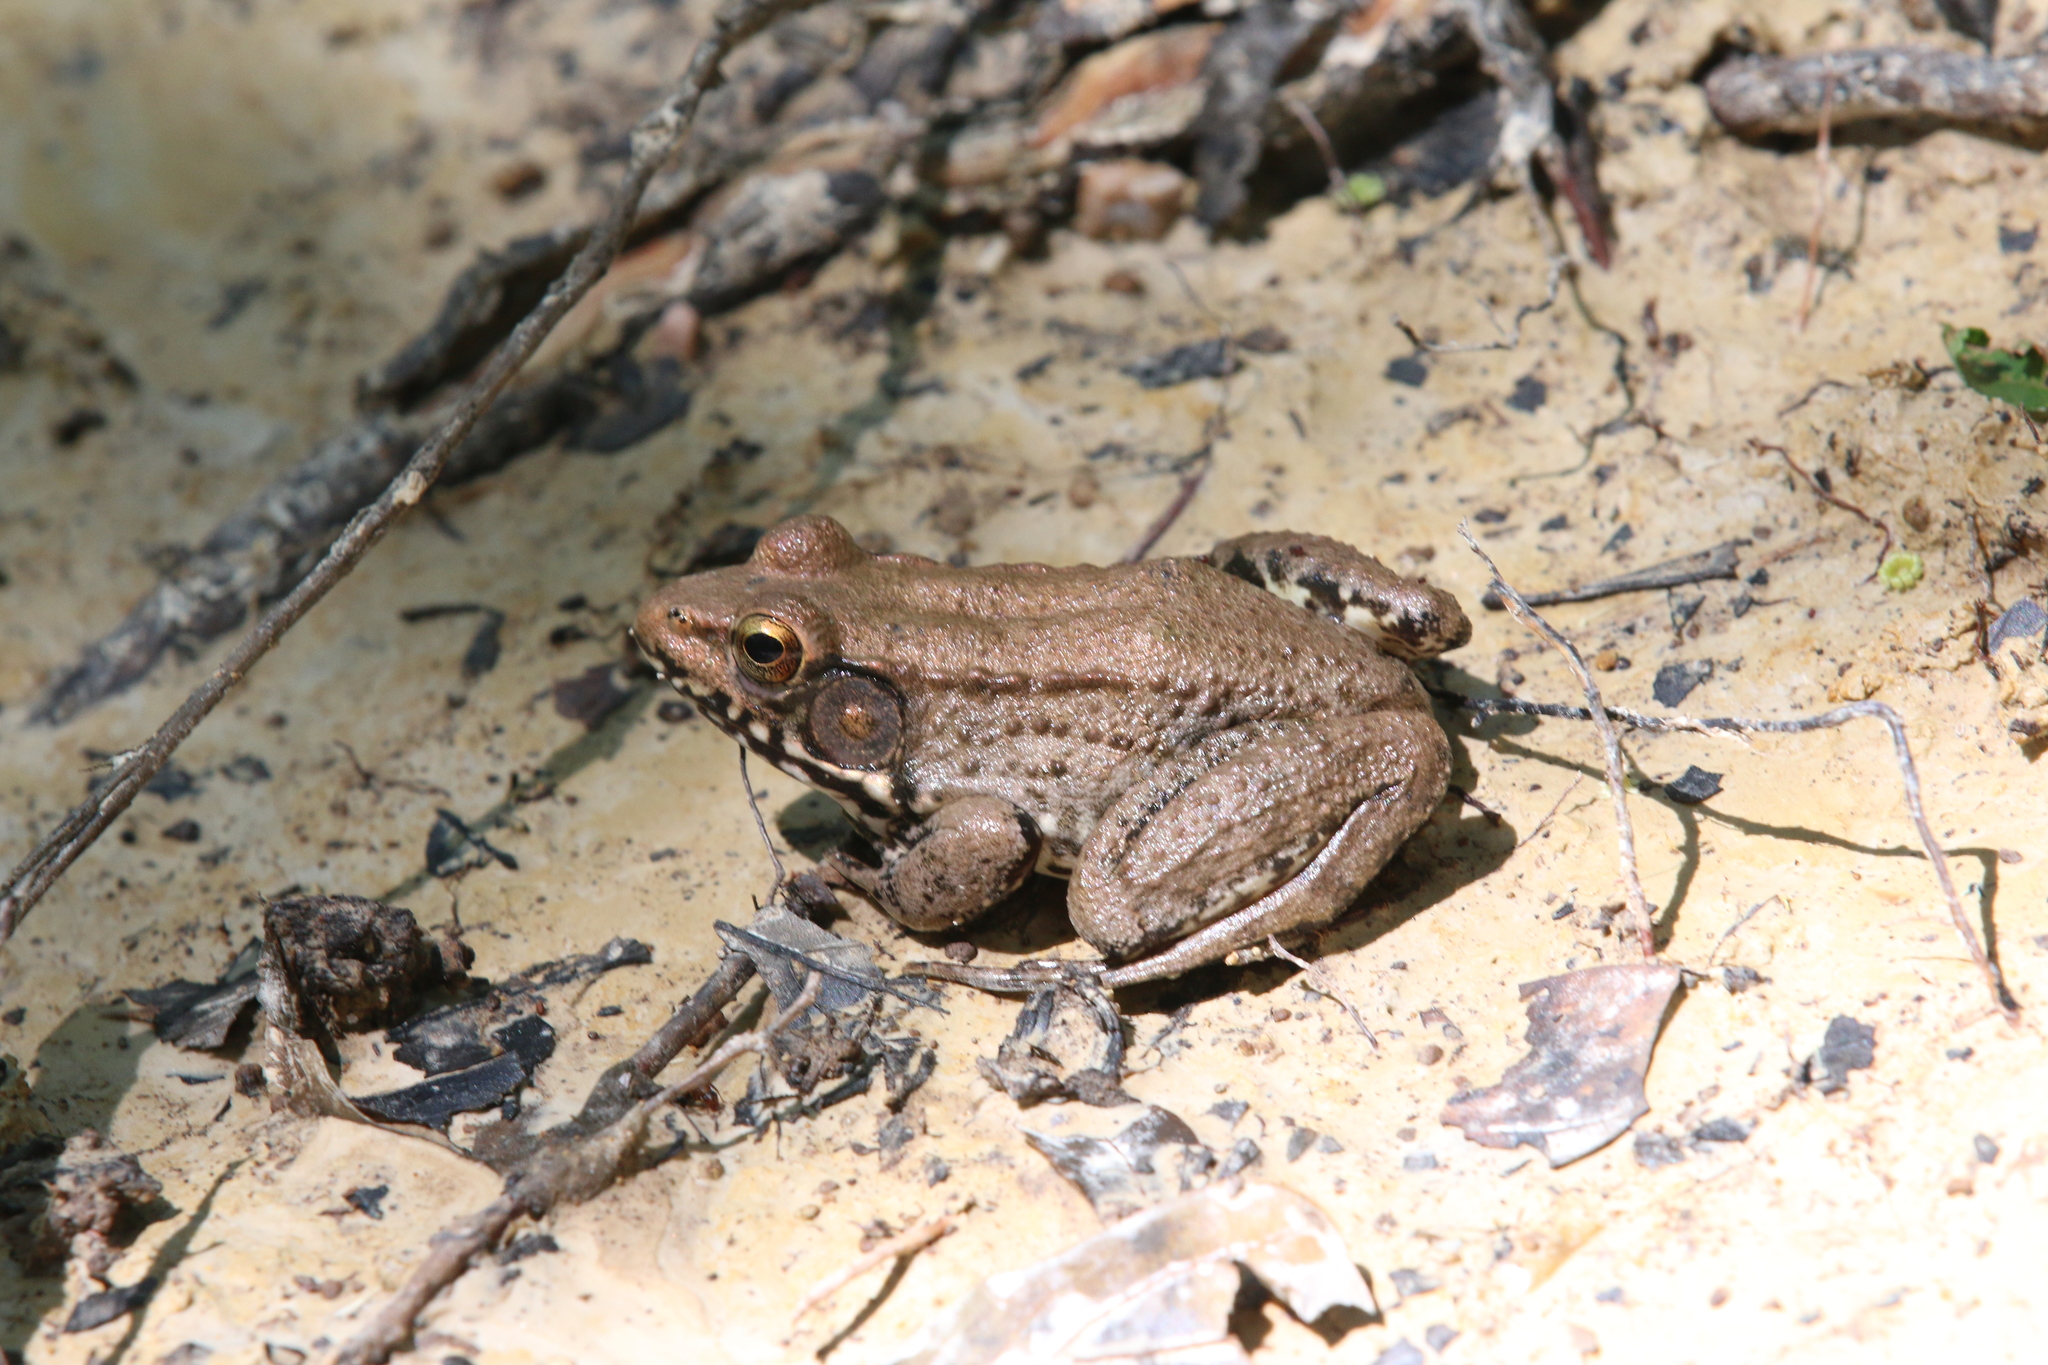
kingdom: Animalia
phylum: Chordata
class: Amphibia
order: Anura
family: Ranidae
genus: Lithobates
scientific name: Lithobates clamitans
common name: Green frog
